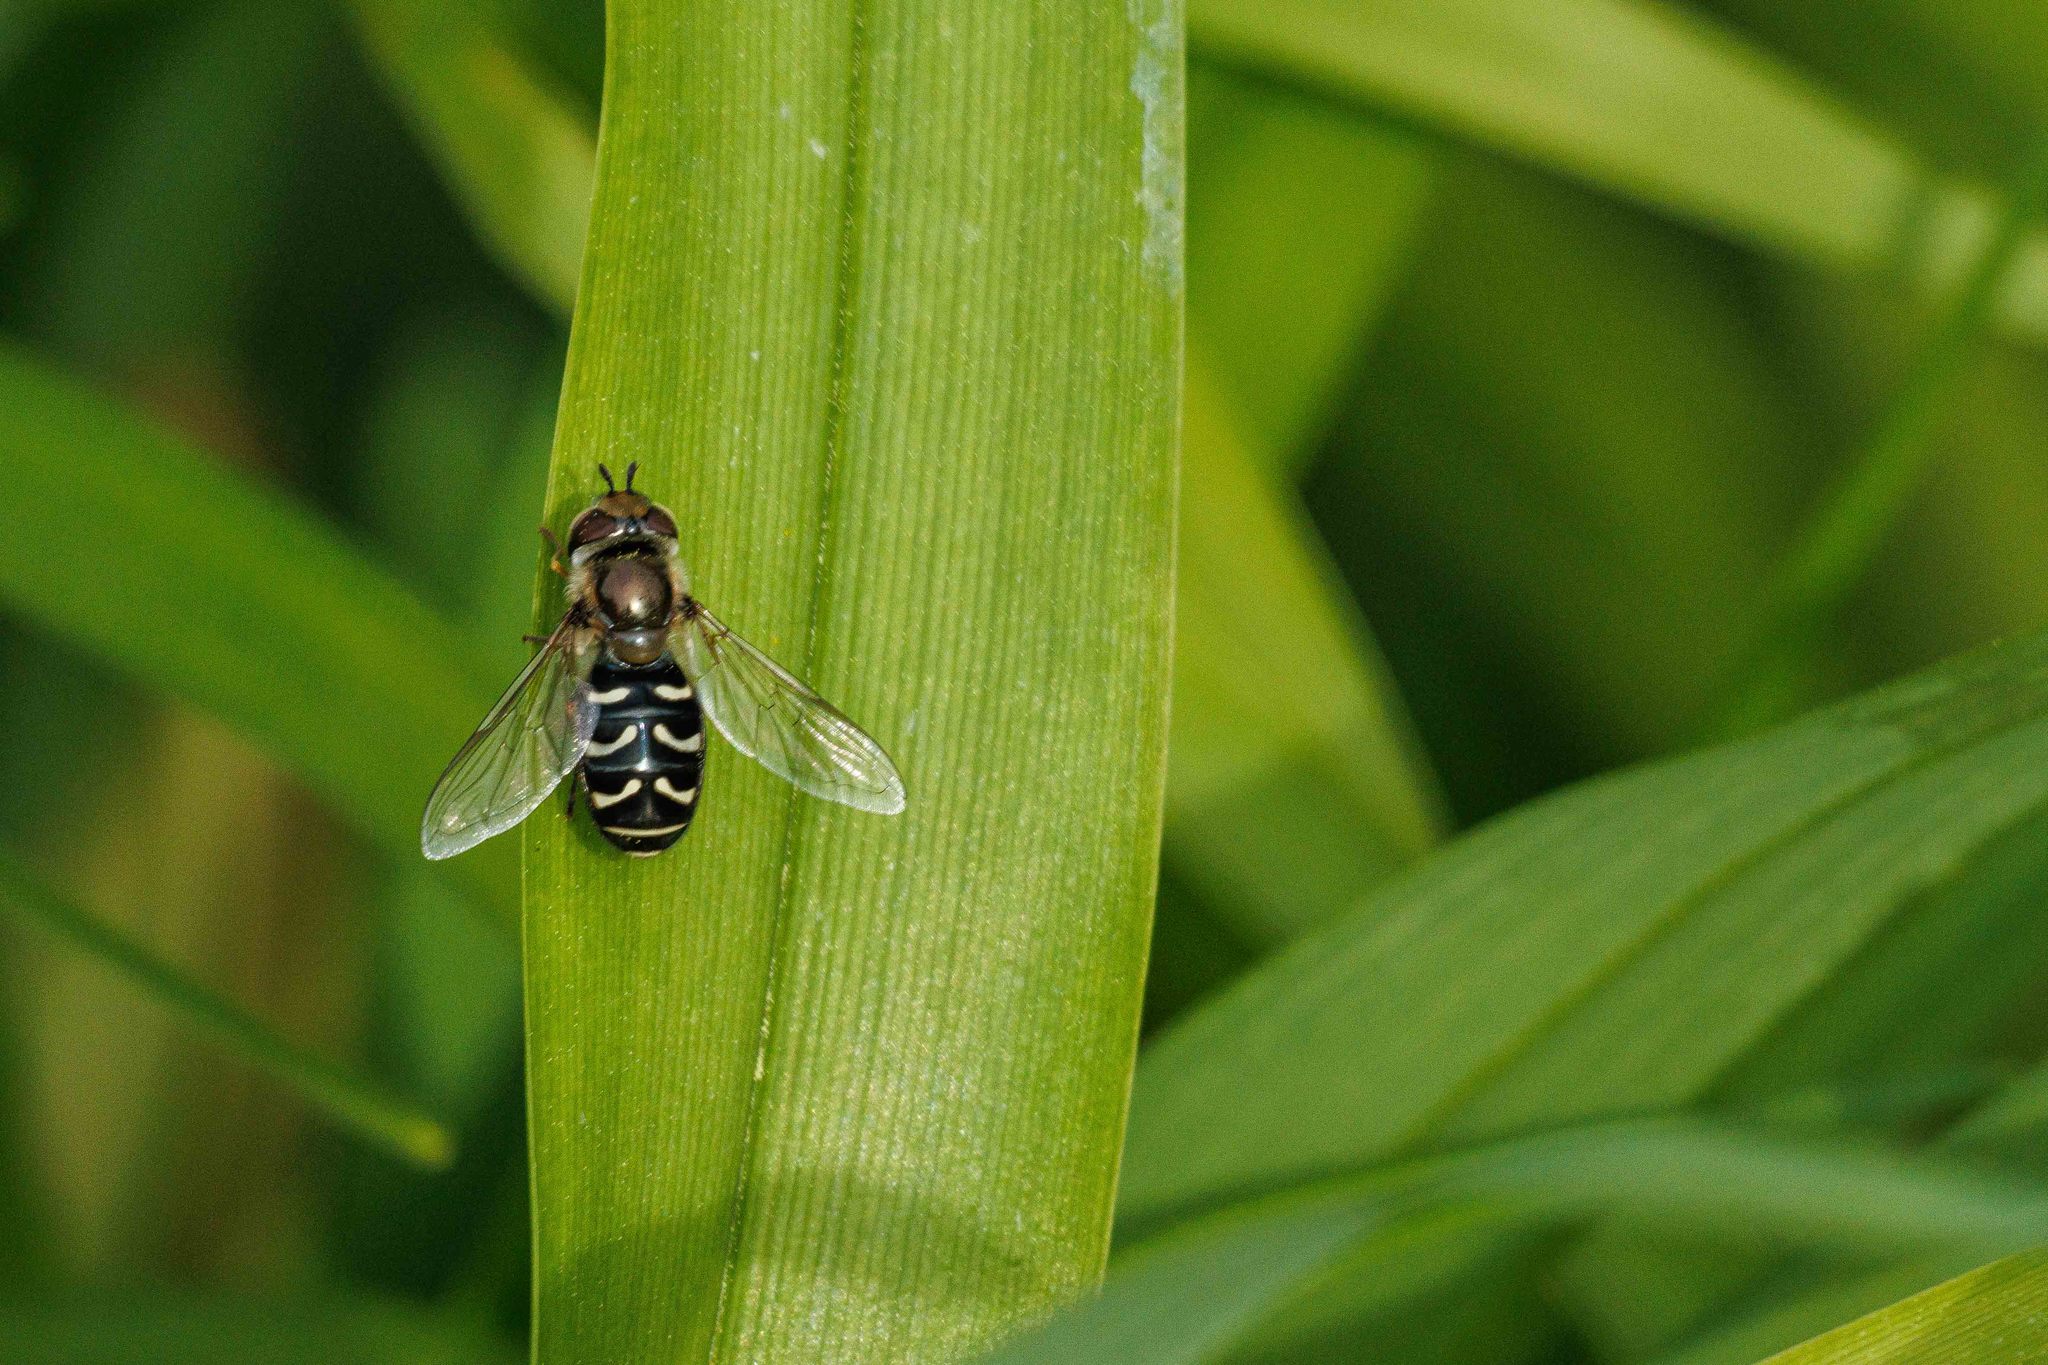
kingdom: Animalia
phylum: Arthropoda
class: Insecta
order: Diptera
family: Syrphidae
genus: Scaeva
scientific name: Scaeva affinis
